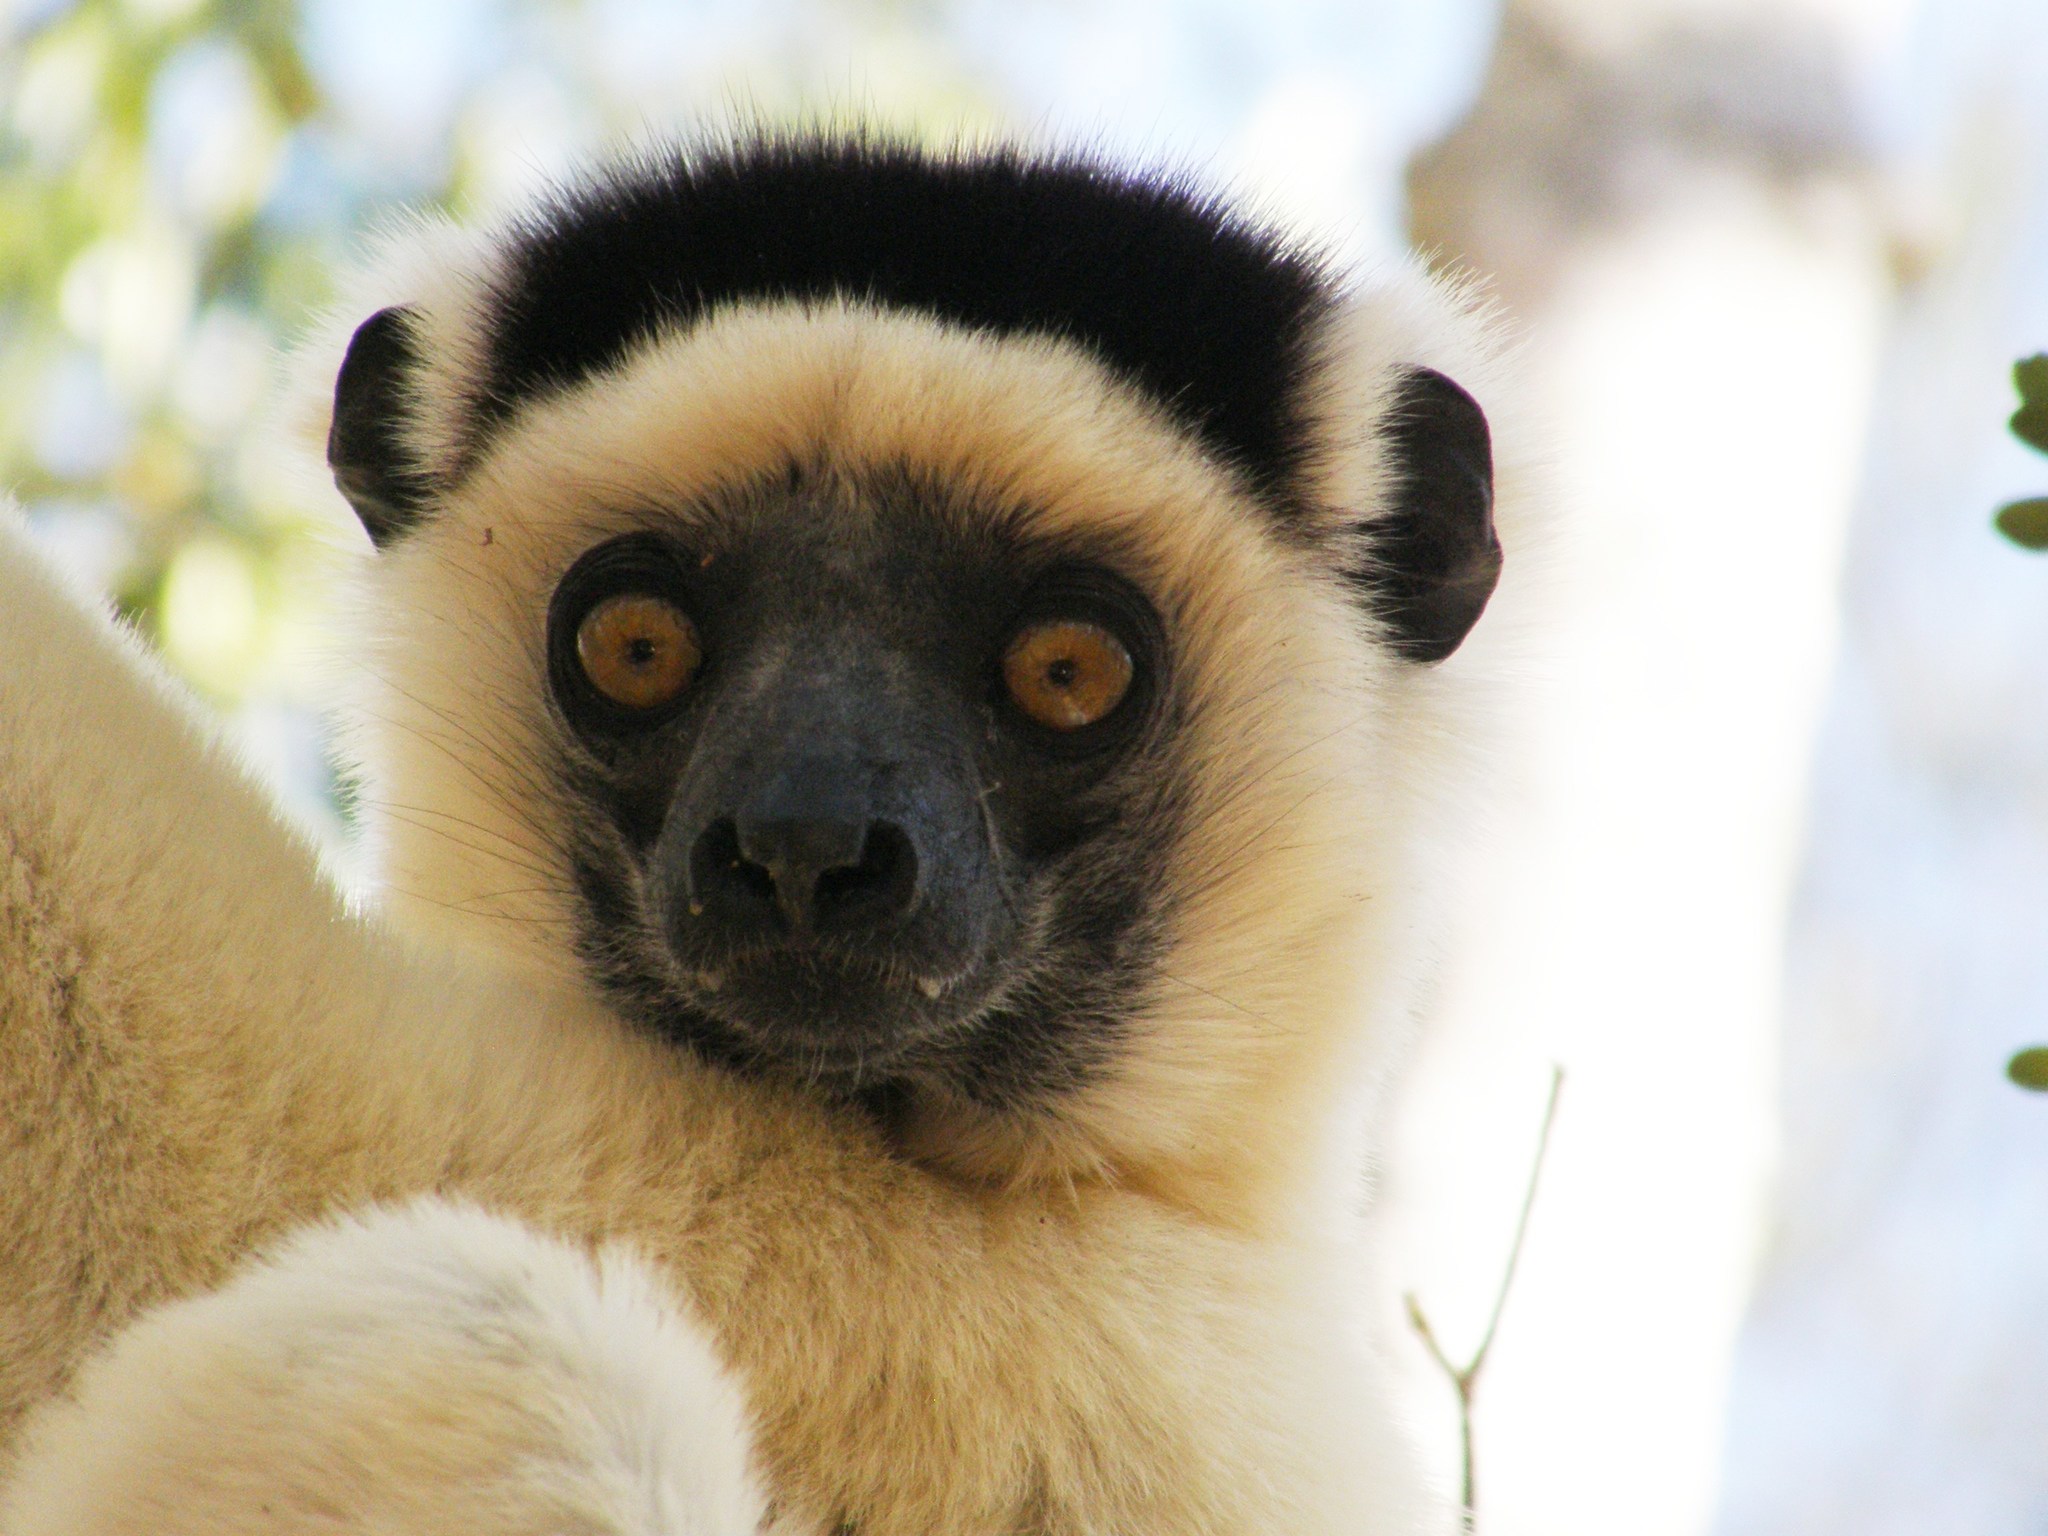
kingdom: Animalia
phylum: Chordata
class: Mammalia
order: Primates
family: Indriidae
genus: Propithecus
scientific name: Propithecus verreauxi
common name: Verreaux's sifaka
